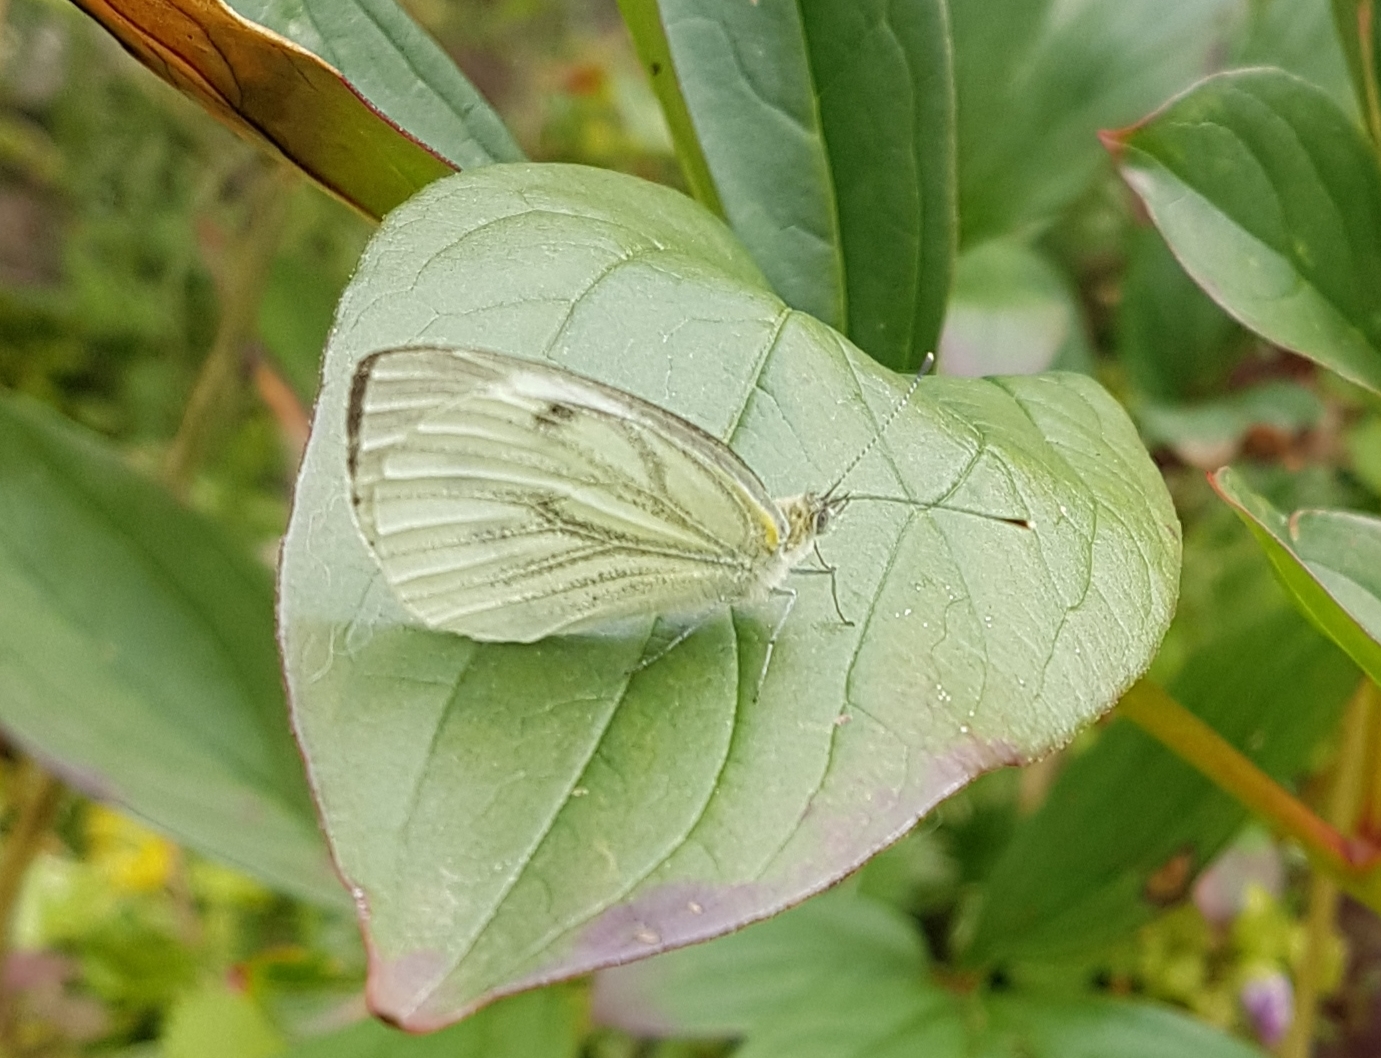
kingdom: Animalia
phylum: Arthropoda
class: Insecta
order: Lepidoptera
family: Pieridae
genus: Pieris
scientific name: Pieris napi
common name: Green-veined white
